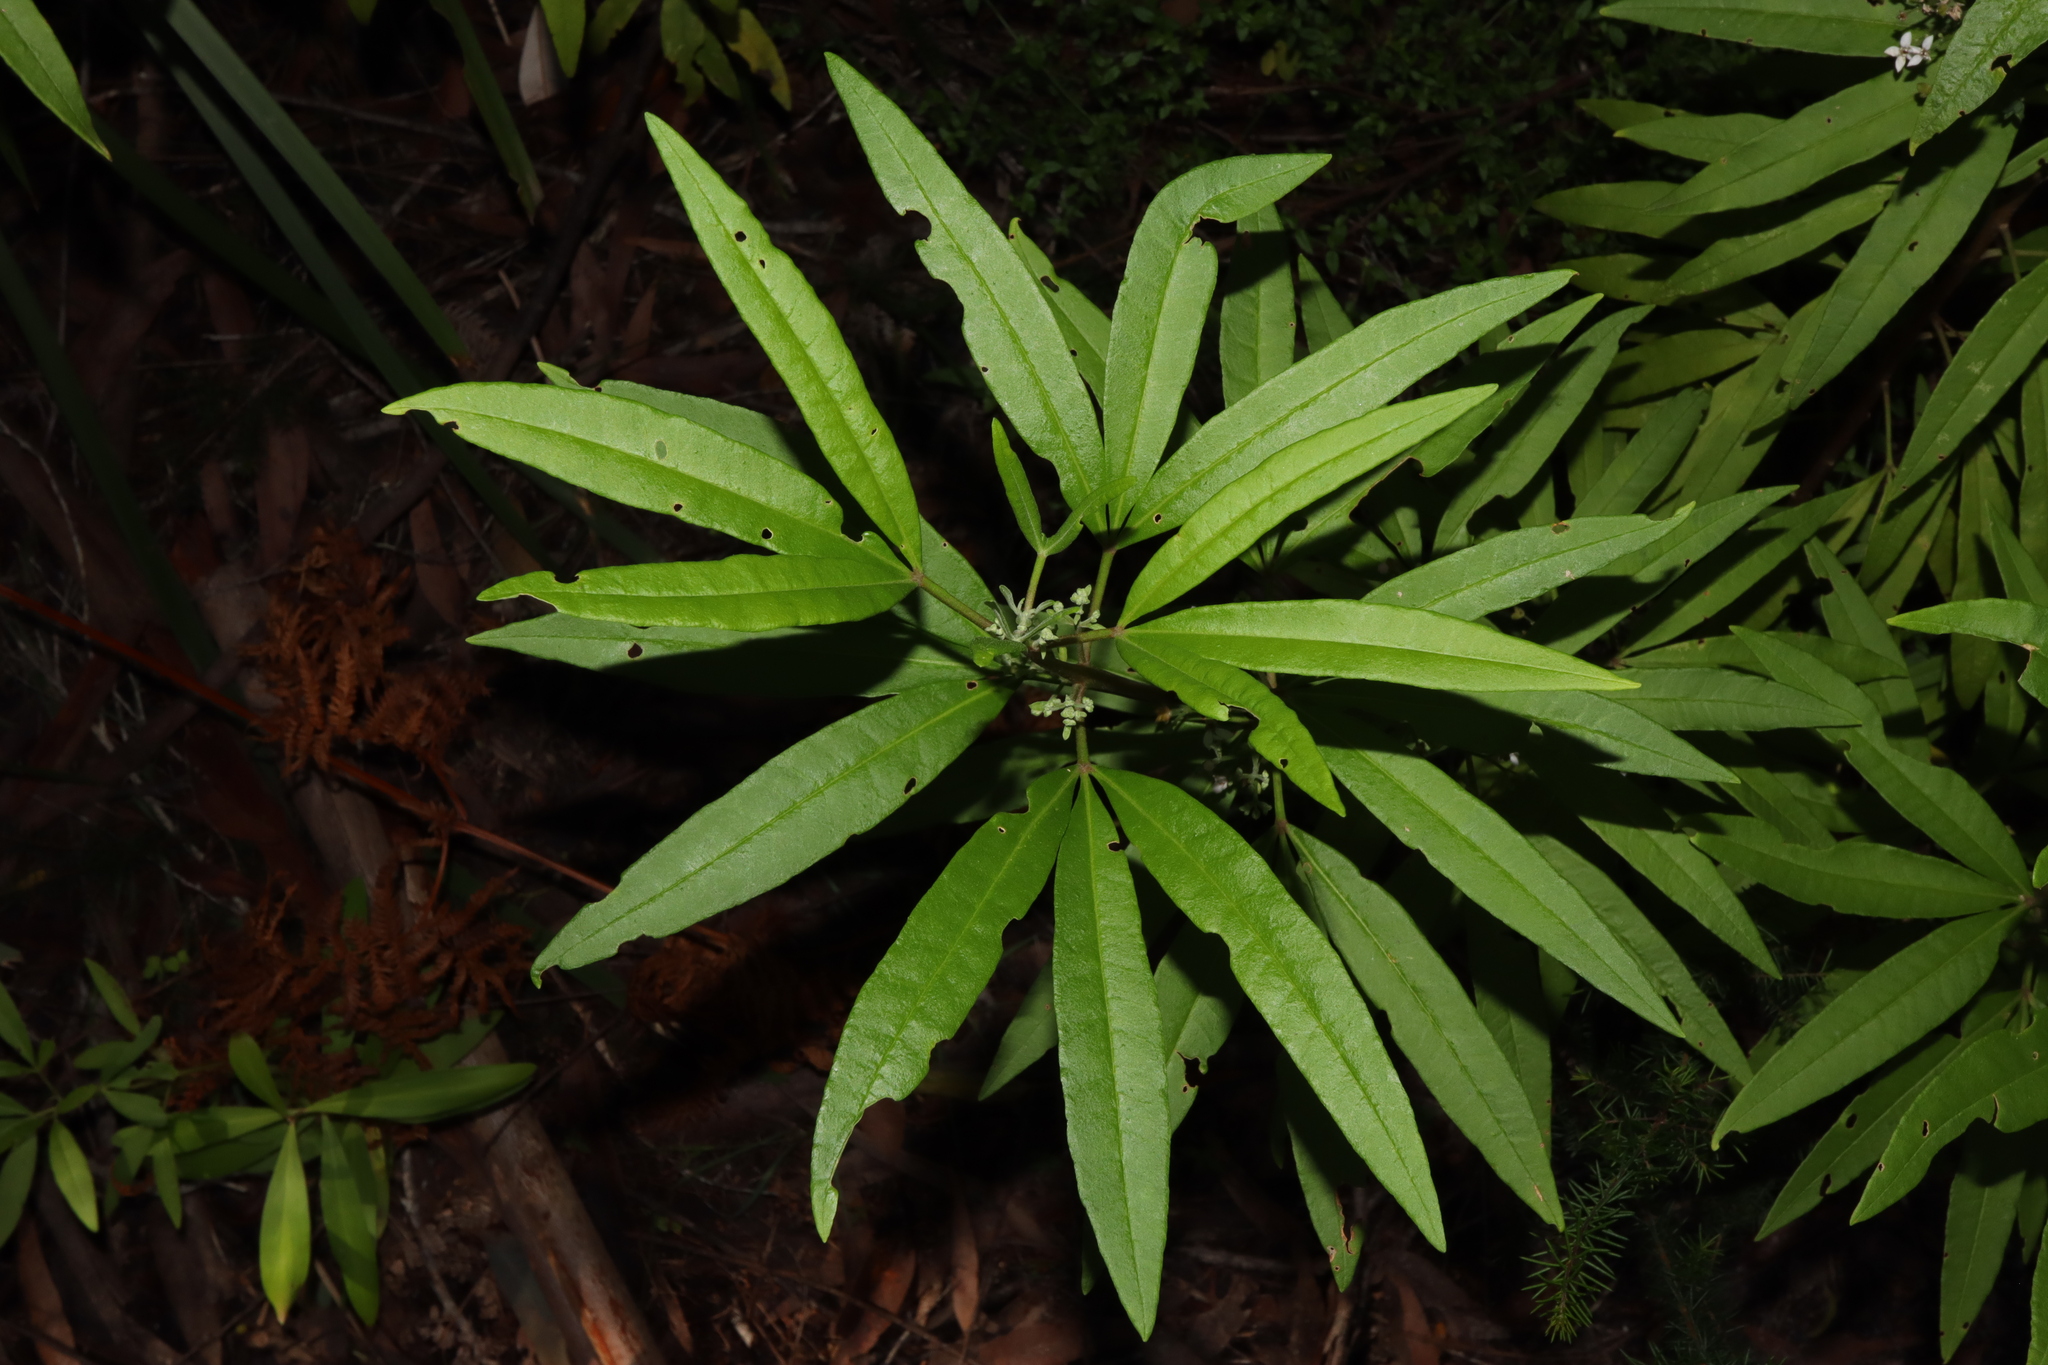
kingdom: Plantae
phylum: Tracheophyta
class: Magnoliopsida
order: Sapindales
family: Rutaceae
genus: Zieria
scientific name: Zieria arborescens
